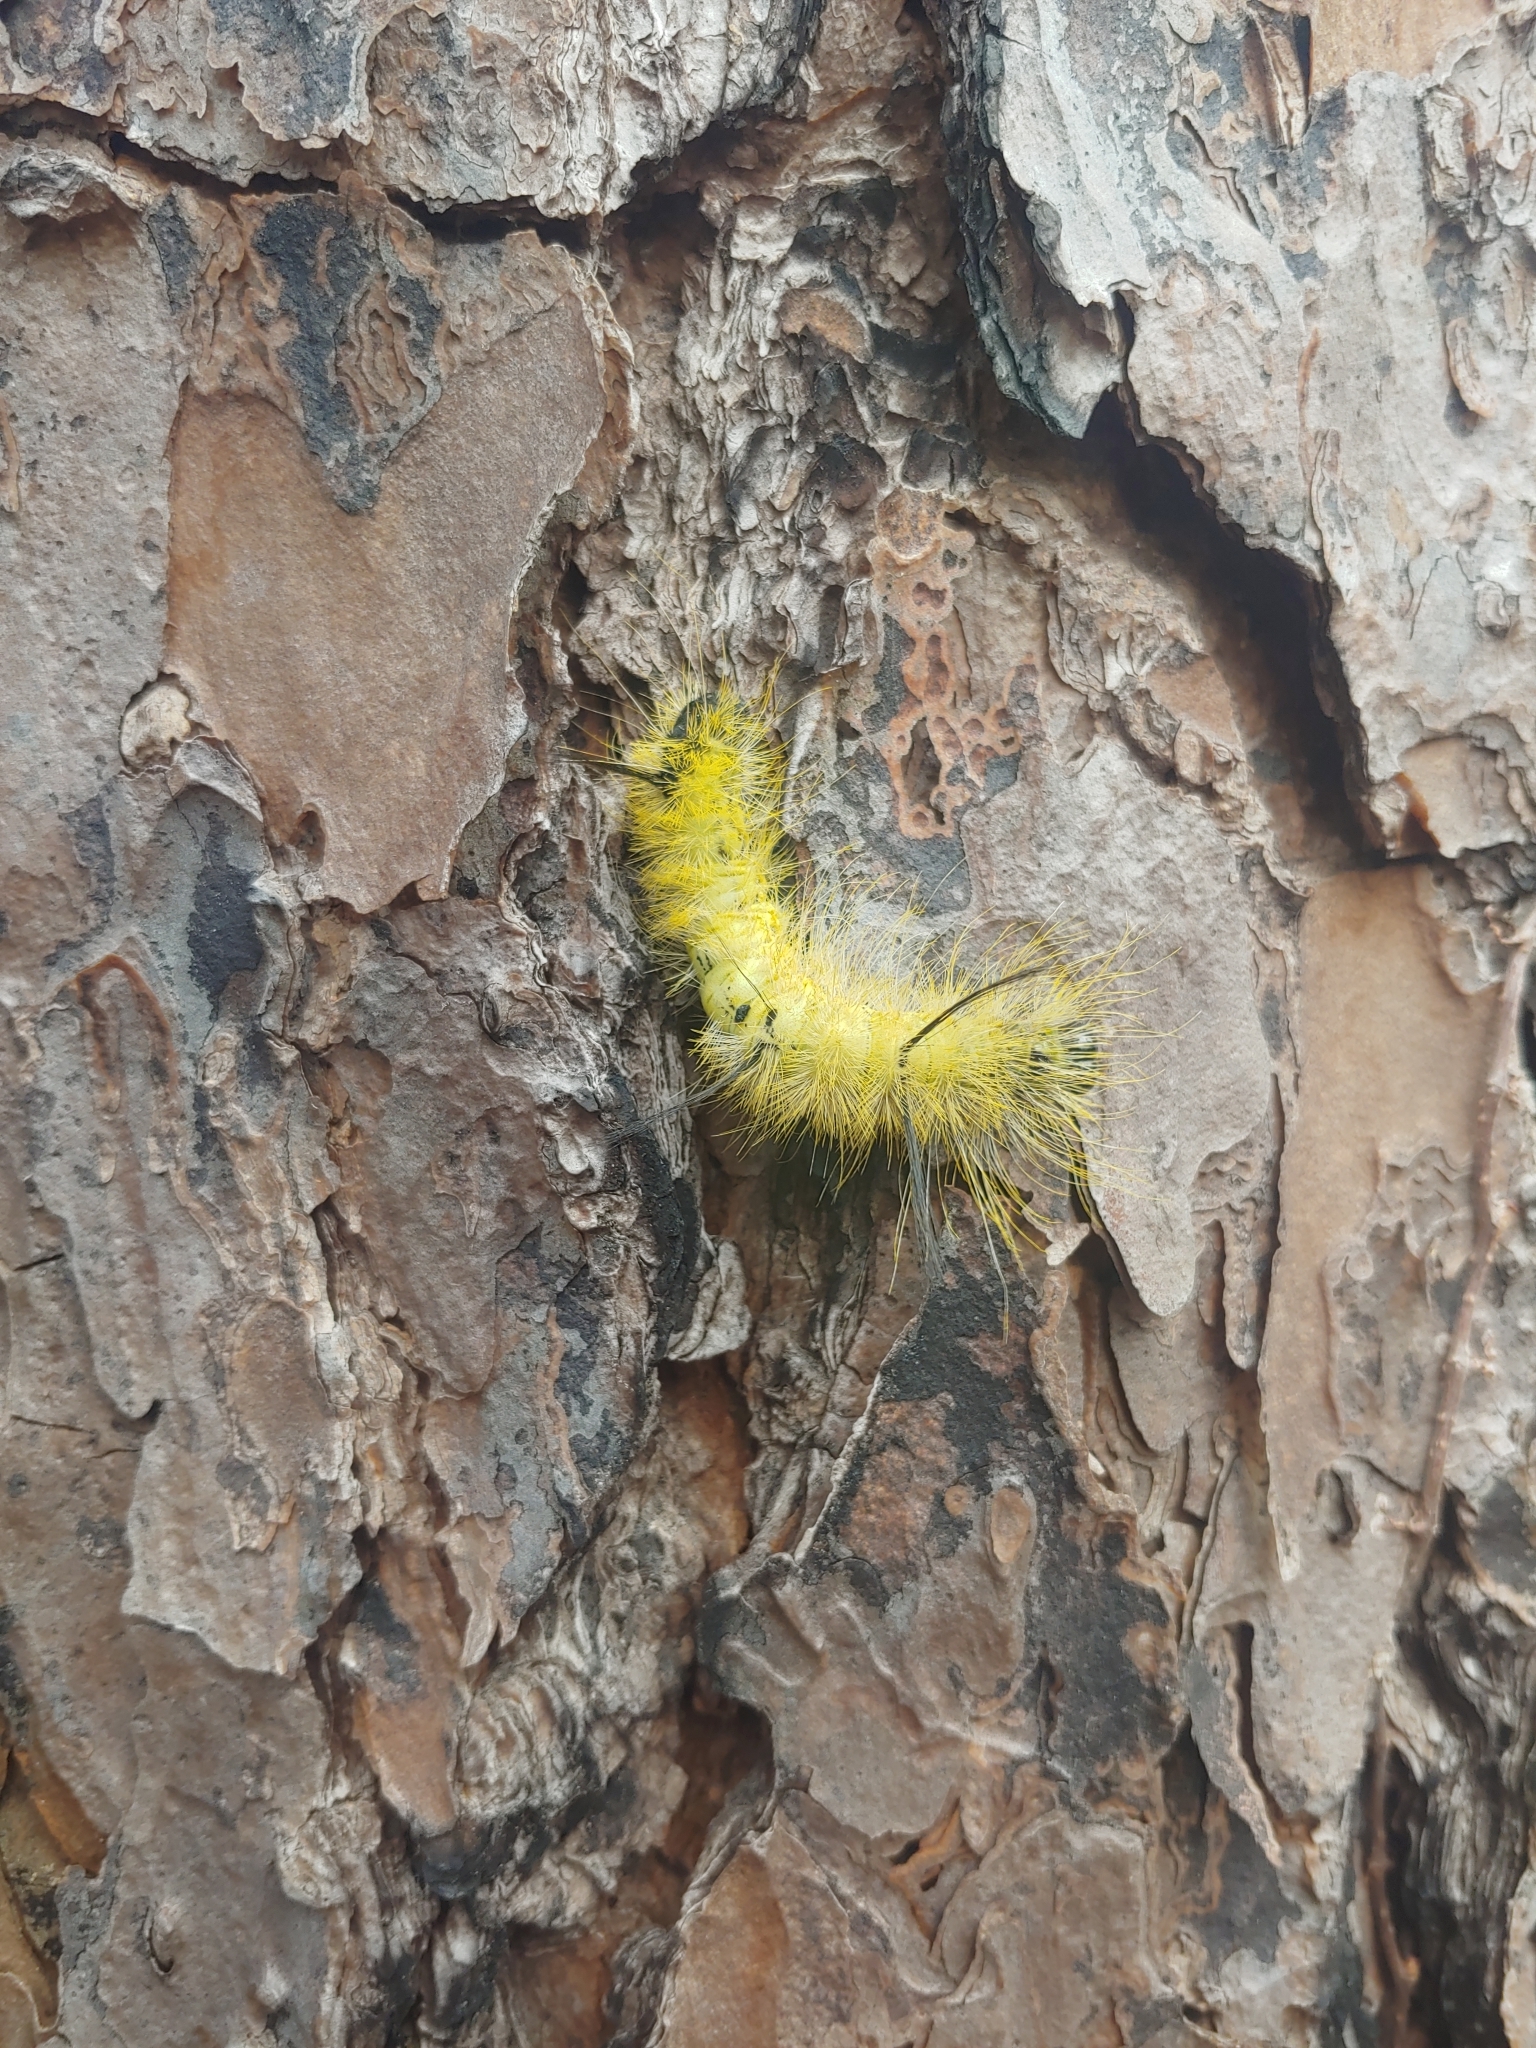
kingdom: Animalia
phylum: Arthropoda
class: Insecta
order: Lepidoptera
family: Noctuidae
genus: Acronicta
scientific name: Acronicta americana
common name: American dagger
